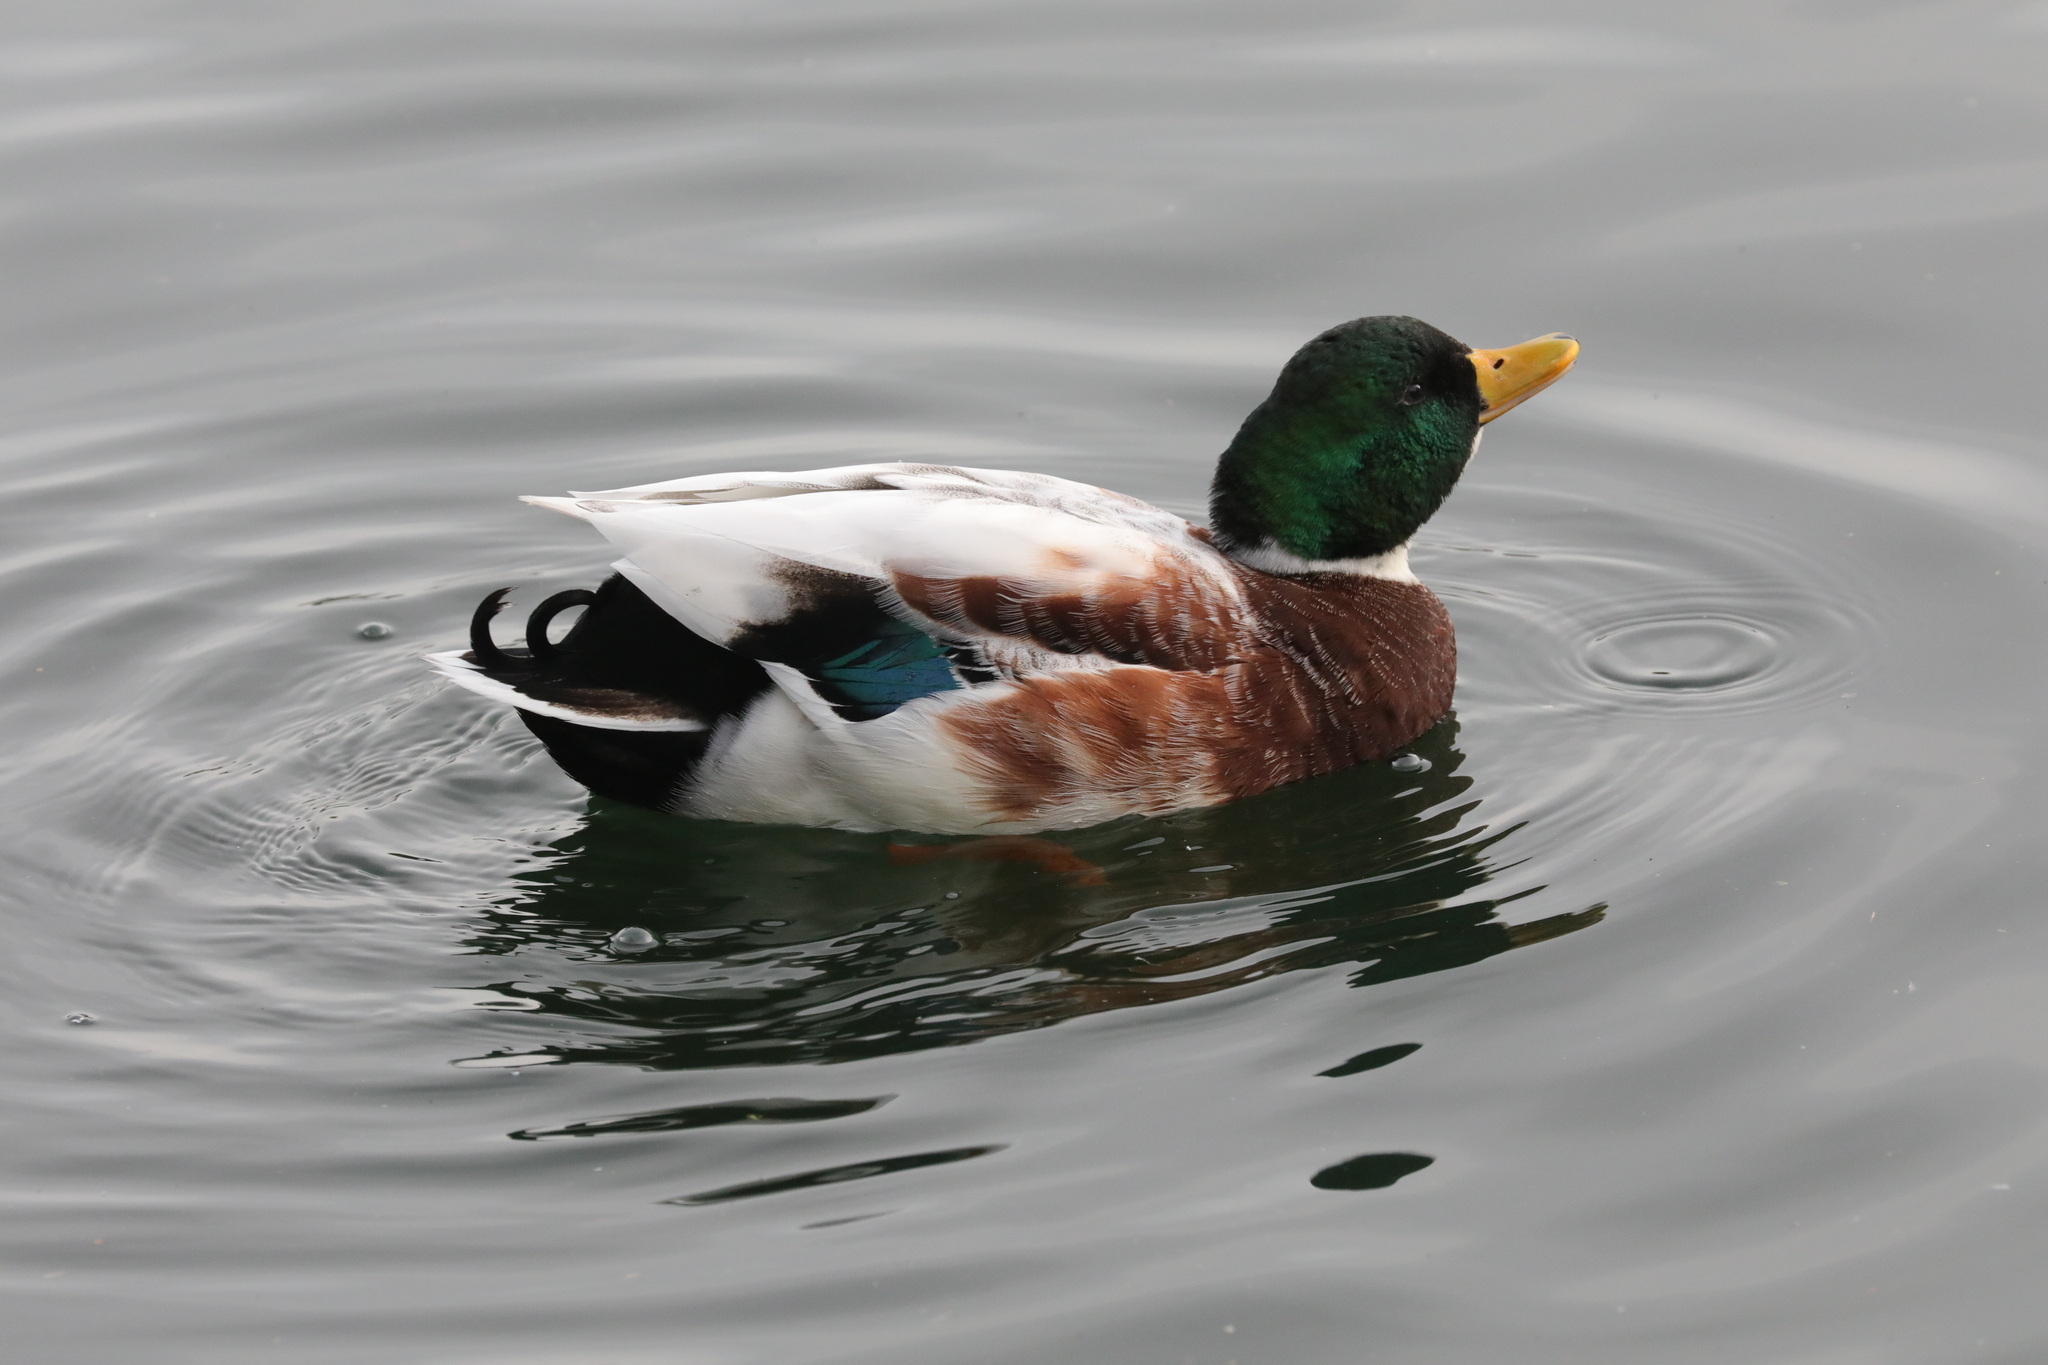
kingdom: Animalia
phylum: Chordata
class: Aves
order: Anseriformes
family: Anatidae
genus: Anas
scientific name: Anas platyrhynchos
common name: Mallard
